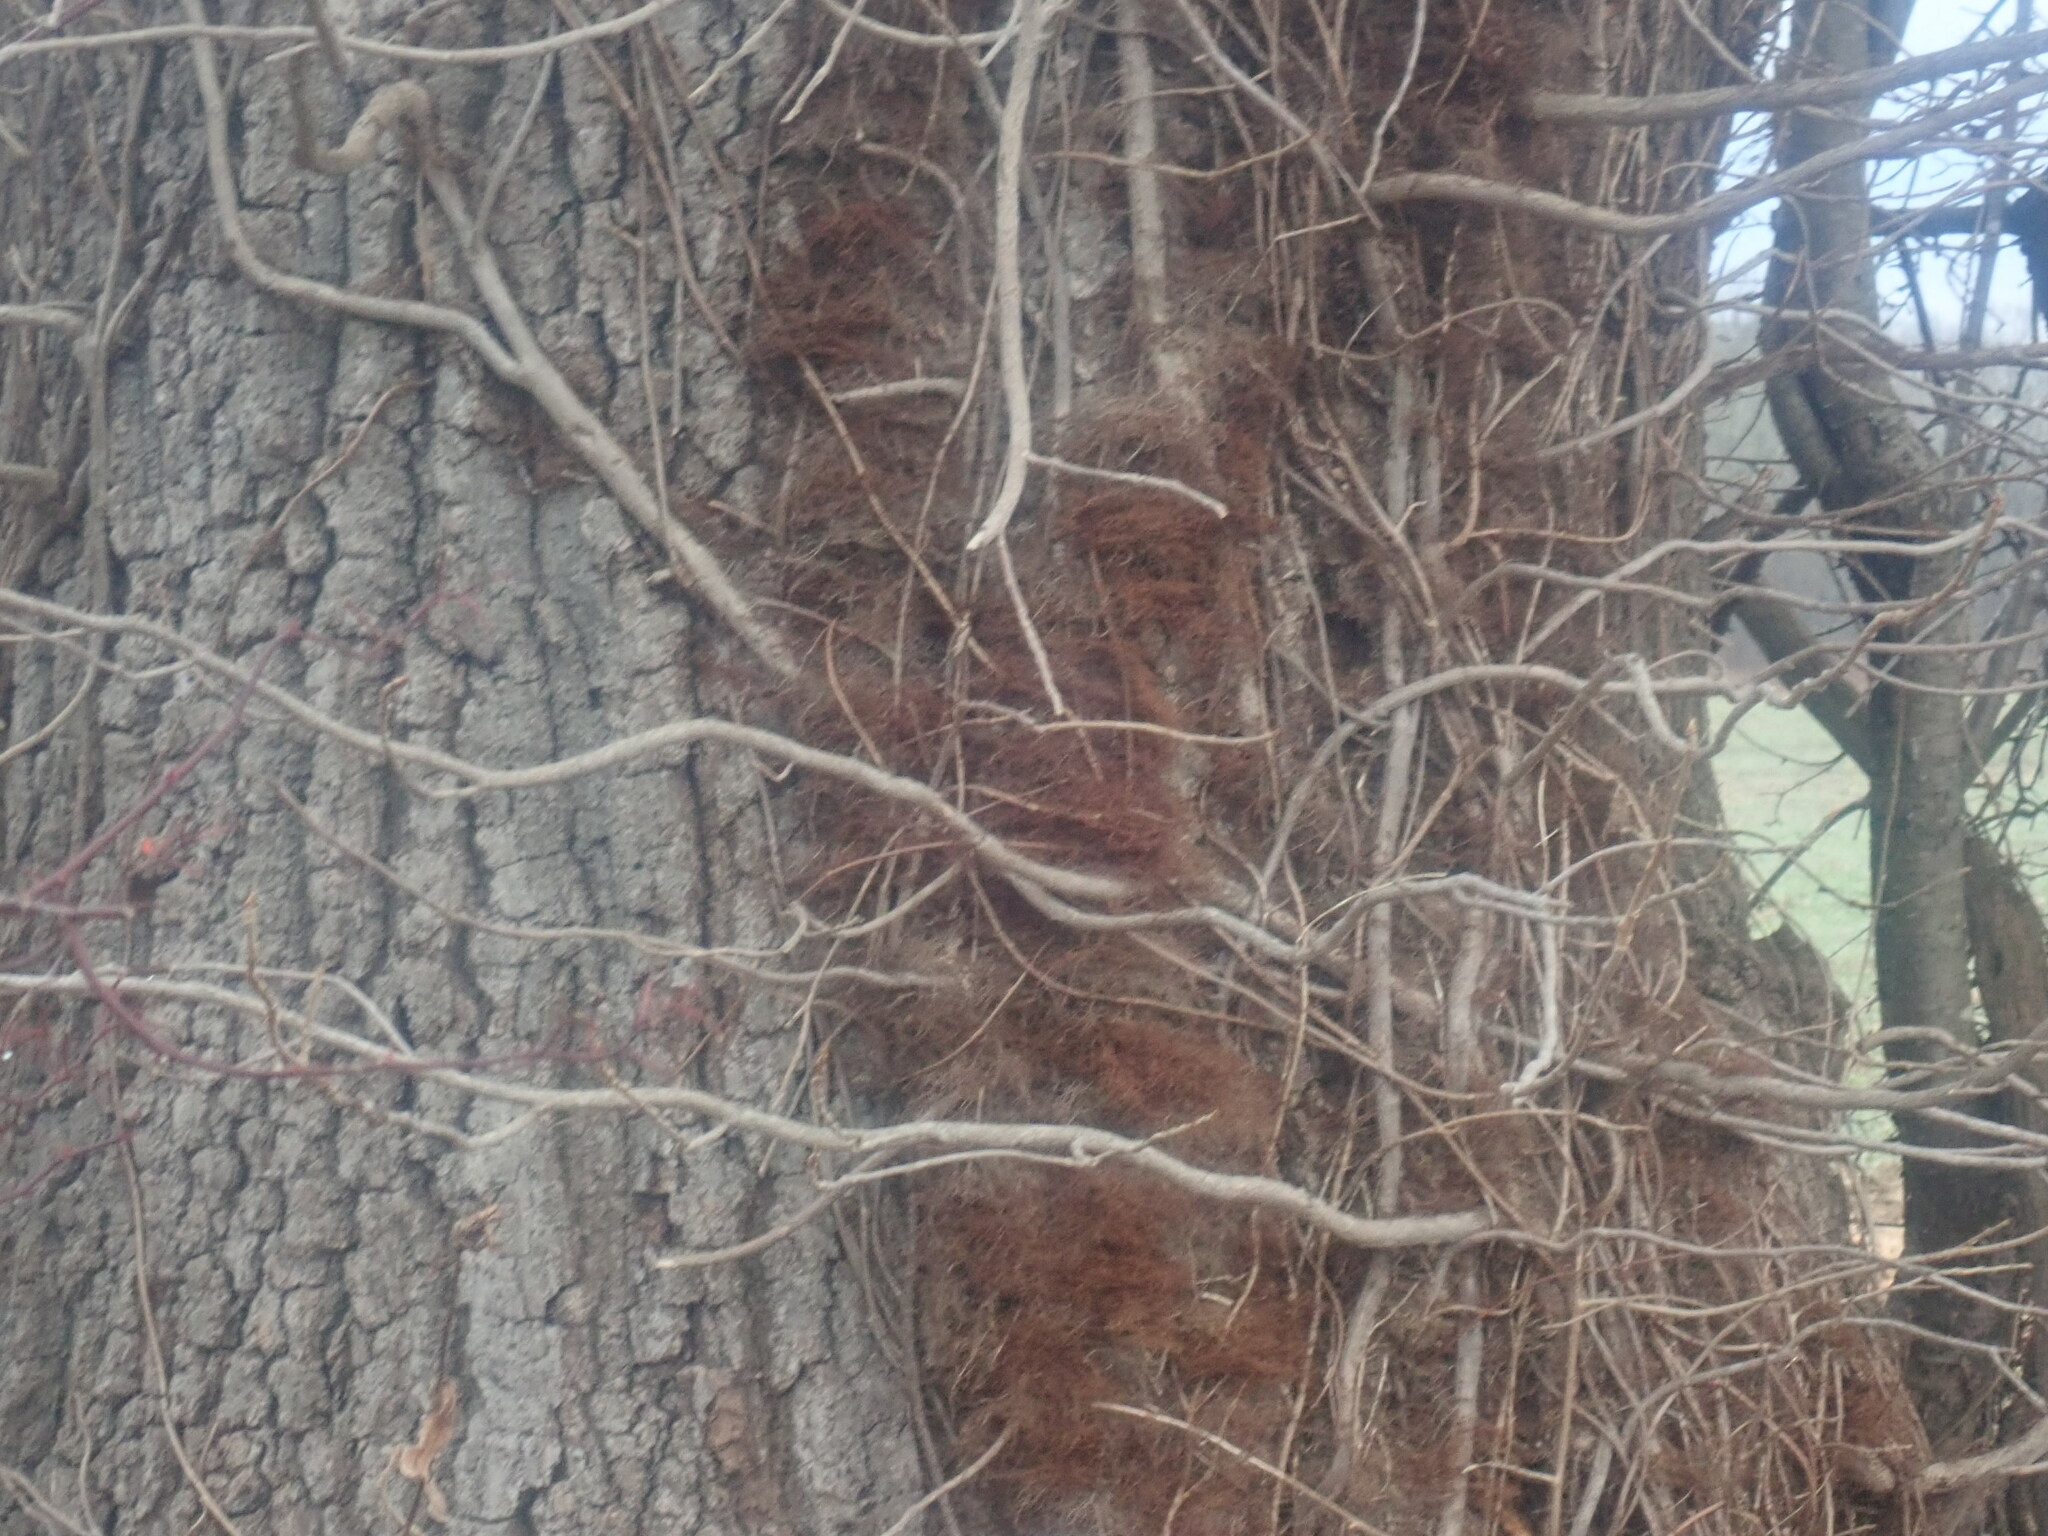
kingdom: Plantae
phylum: Tracheophyta
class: Magnoliopsida
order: Sapindales
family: Anacardiaceae
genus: Toxicodendron
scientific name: Toxicodendron radicans
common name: Poison ivy
